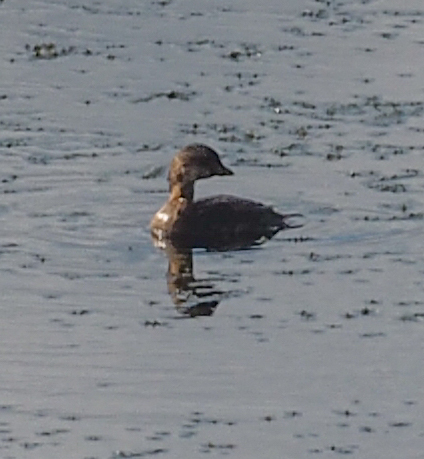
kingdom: Animalia
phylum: Chordata
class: Aves
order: Podicipediformes
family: Podicipedidae
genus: Podilymbus
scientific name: Podilymbus podiceps
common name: Pied-billed grebe
